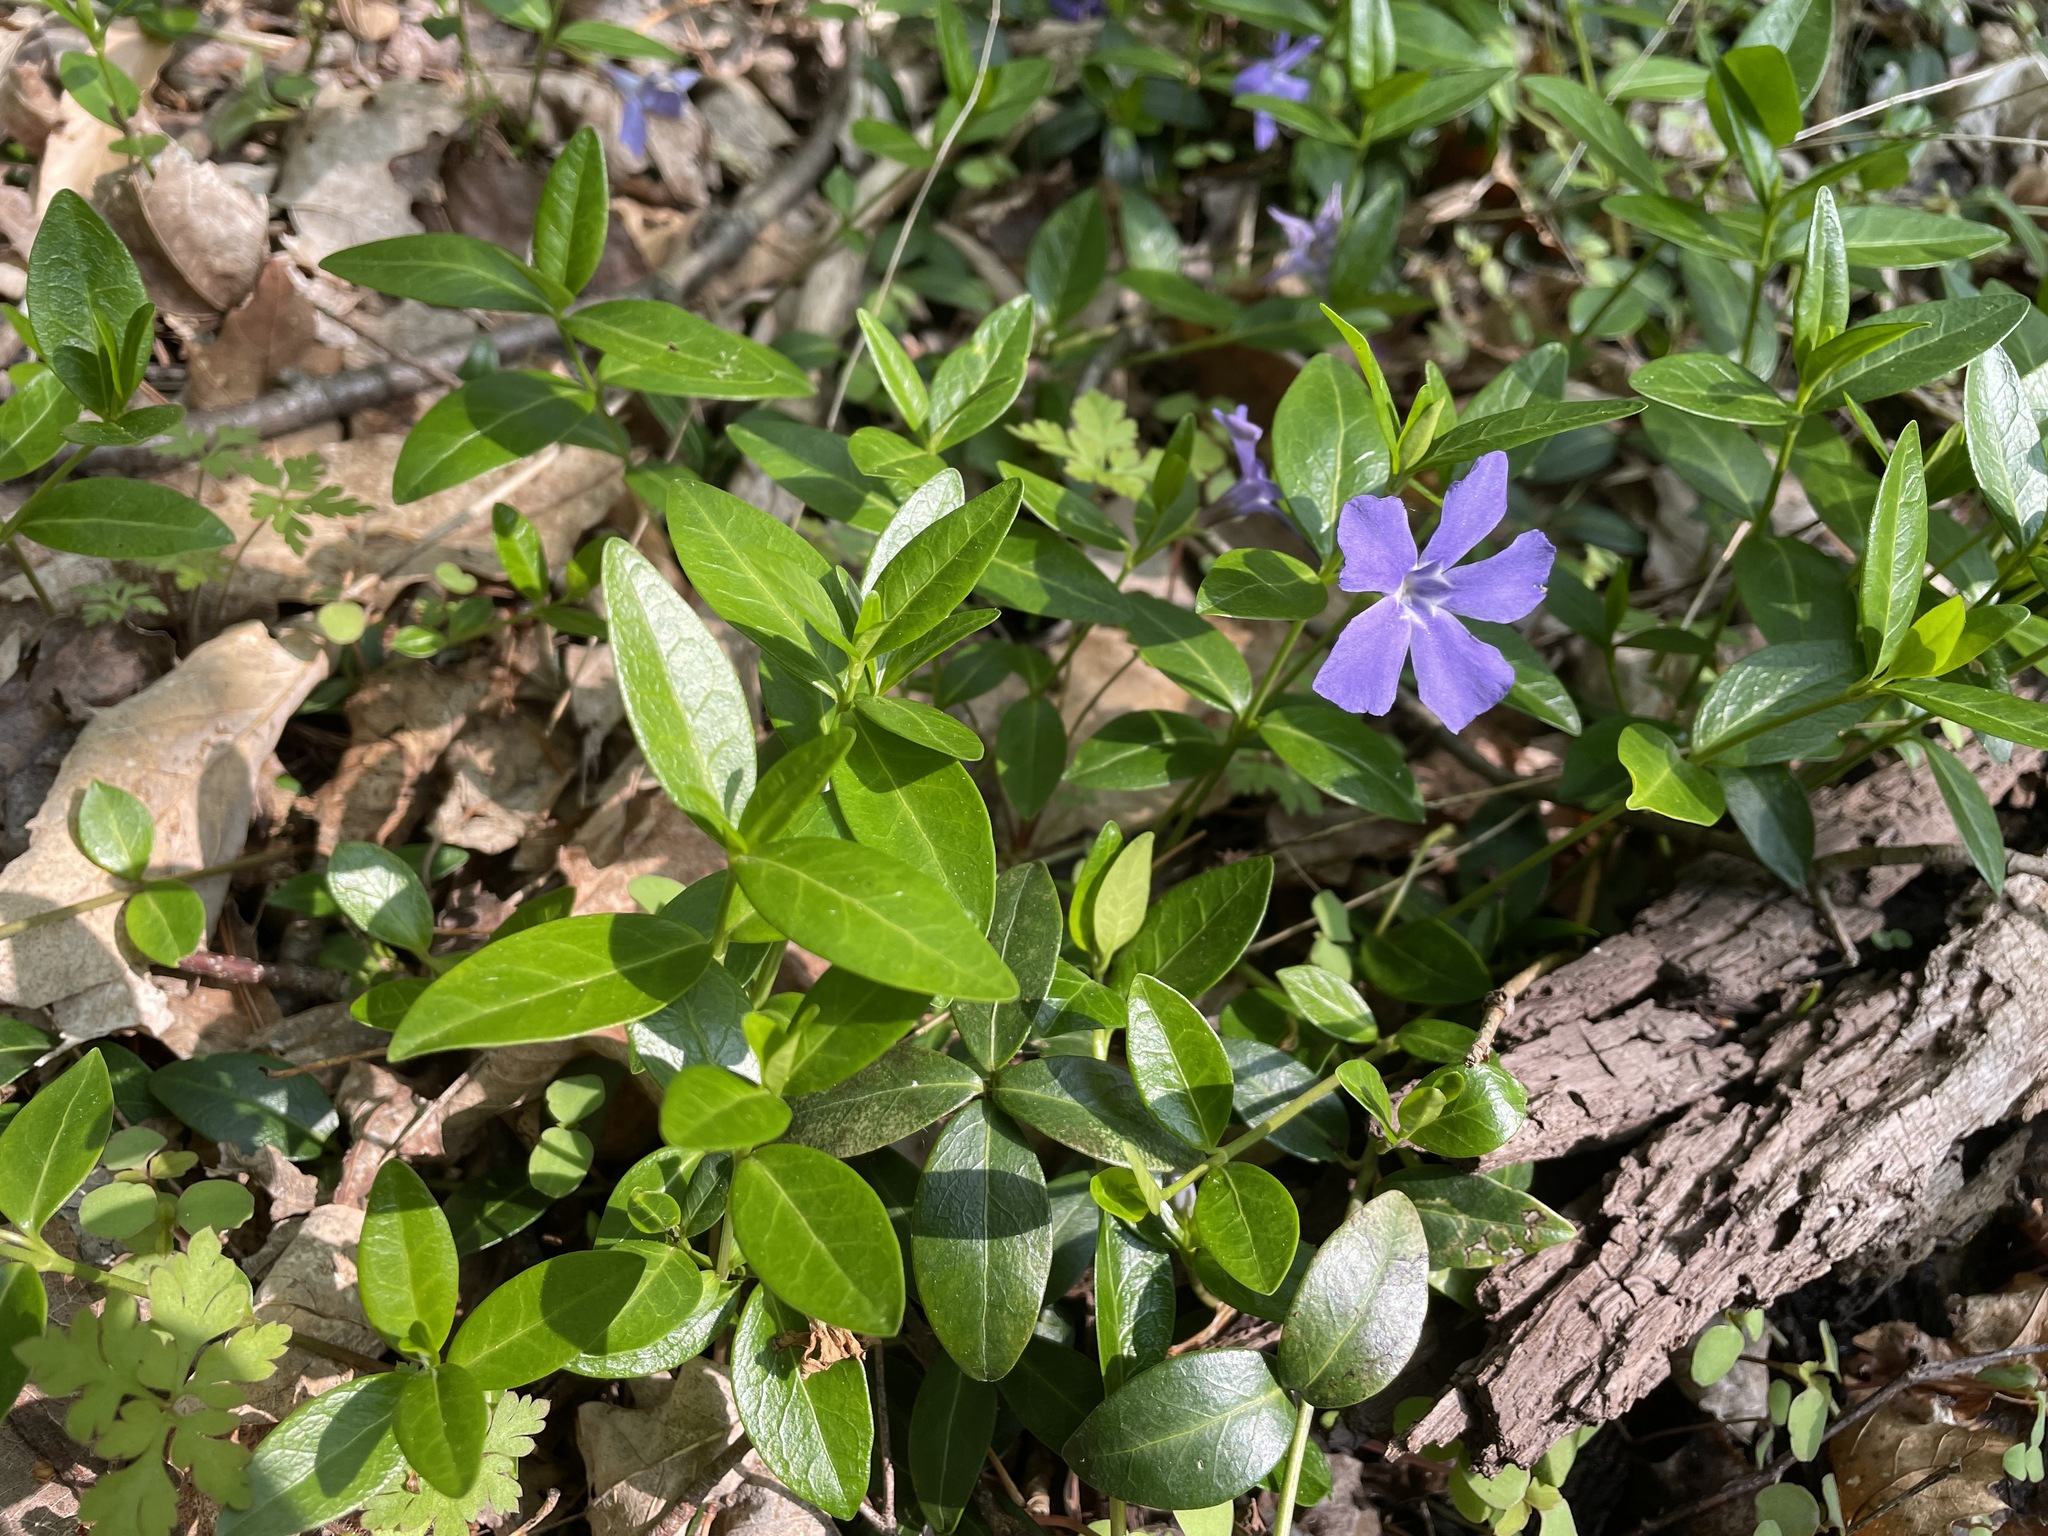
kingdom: Plantae
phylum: Tracheophyta
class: Magnoliopsida
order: Gentianales
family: Apocynaceae
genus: Vinca
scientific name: Vinca minor
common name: Lesser periwinkle
